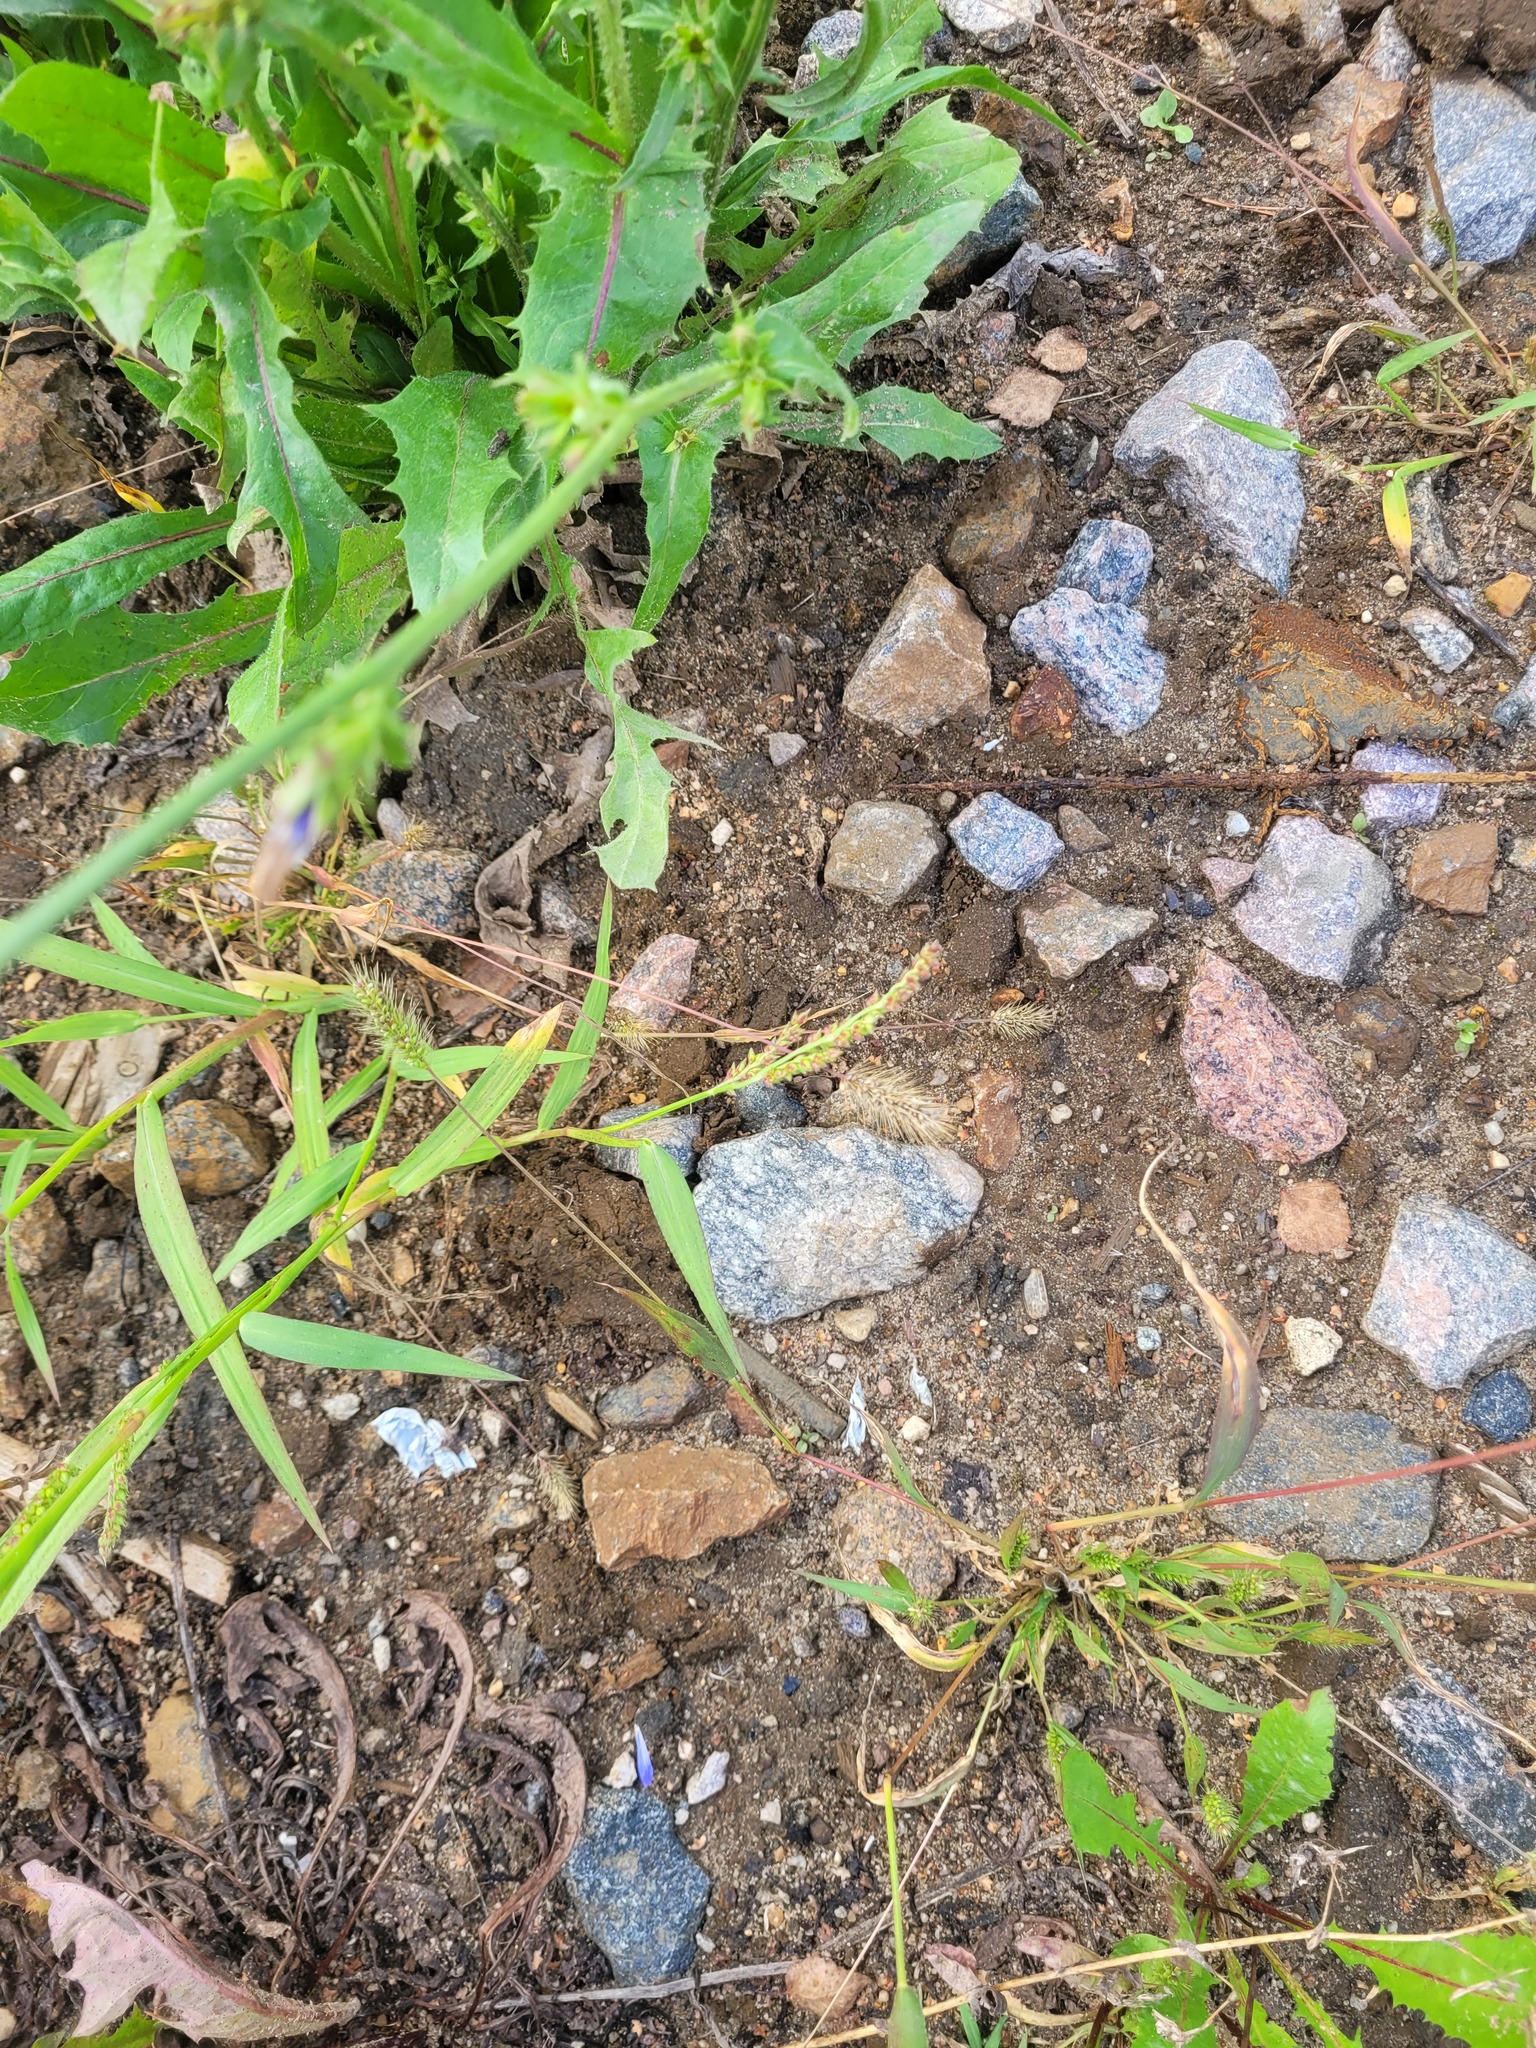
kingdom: Plantae
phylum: Tracheophyta
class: Liliopsida
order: Poales
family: Poaceae
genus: Echinochloa
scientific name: Echinochloa crus-galli
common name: Cockspur
